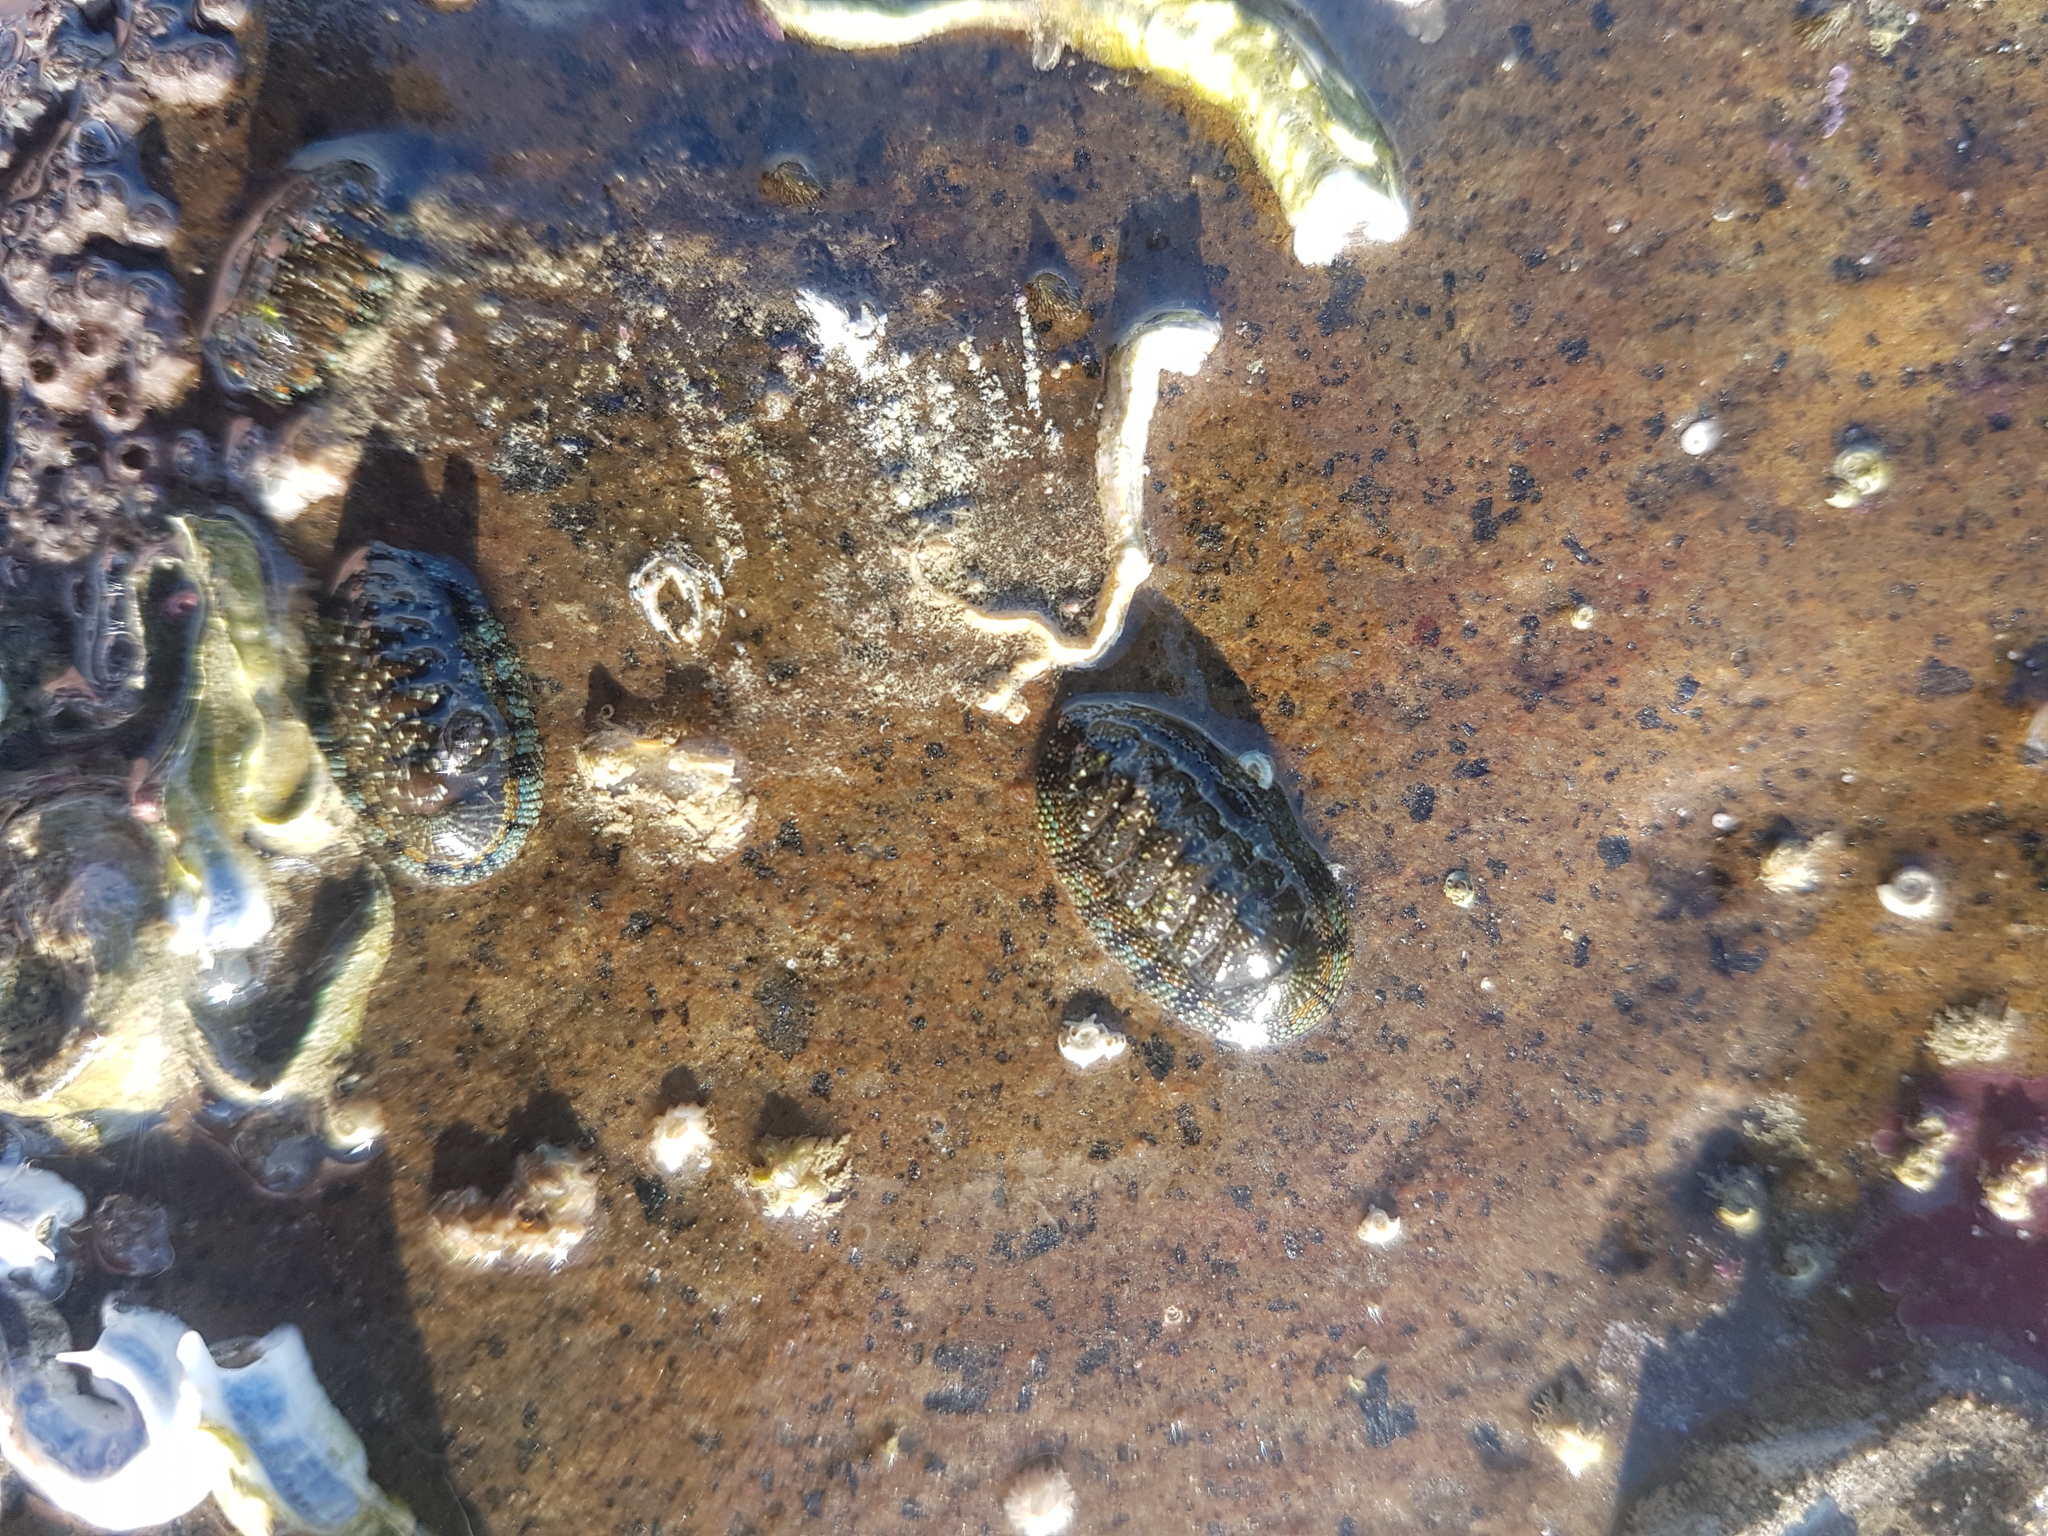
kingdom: Animalia
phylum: Mollusca
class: Polyplacophora
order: Chitonida
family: Chitonidae
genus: Sypharochiton
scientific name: Sypharochiton sinclairi
